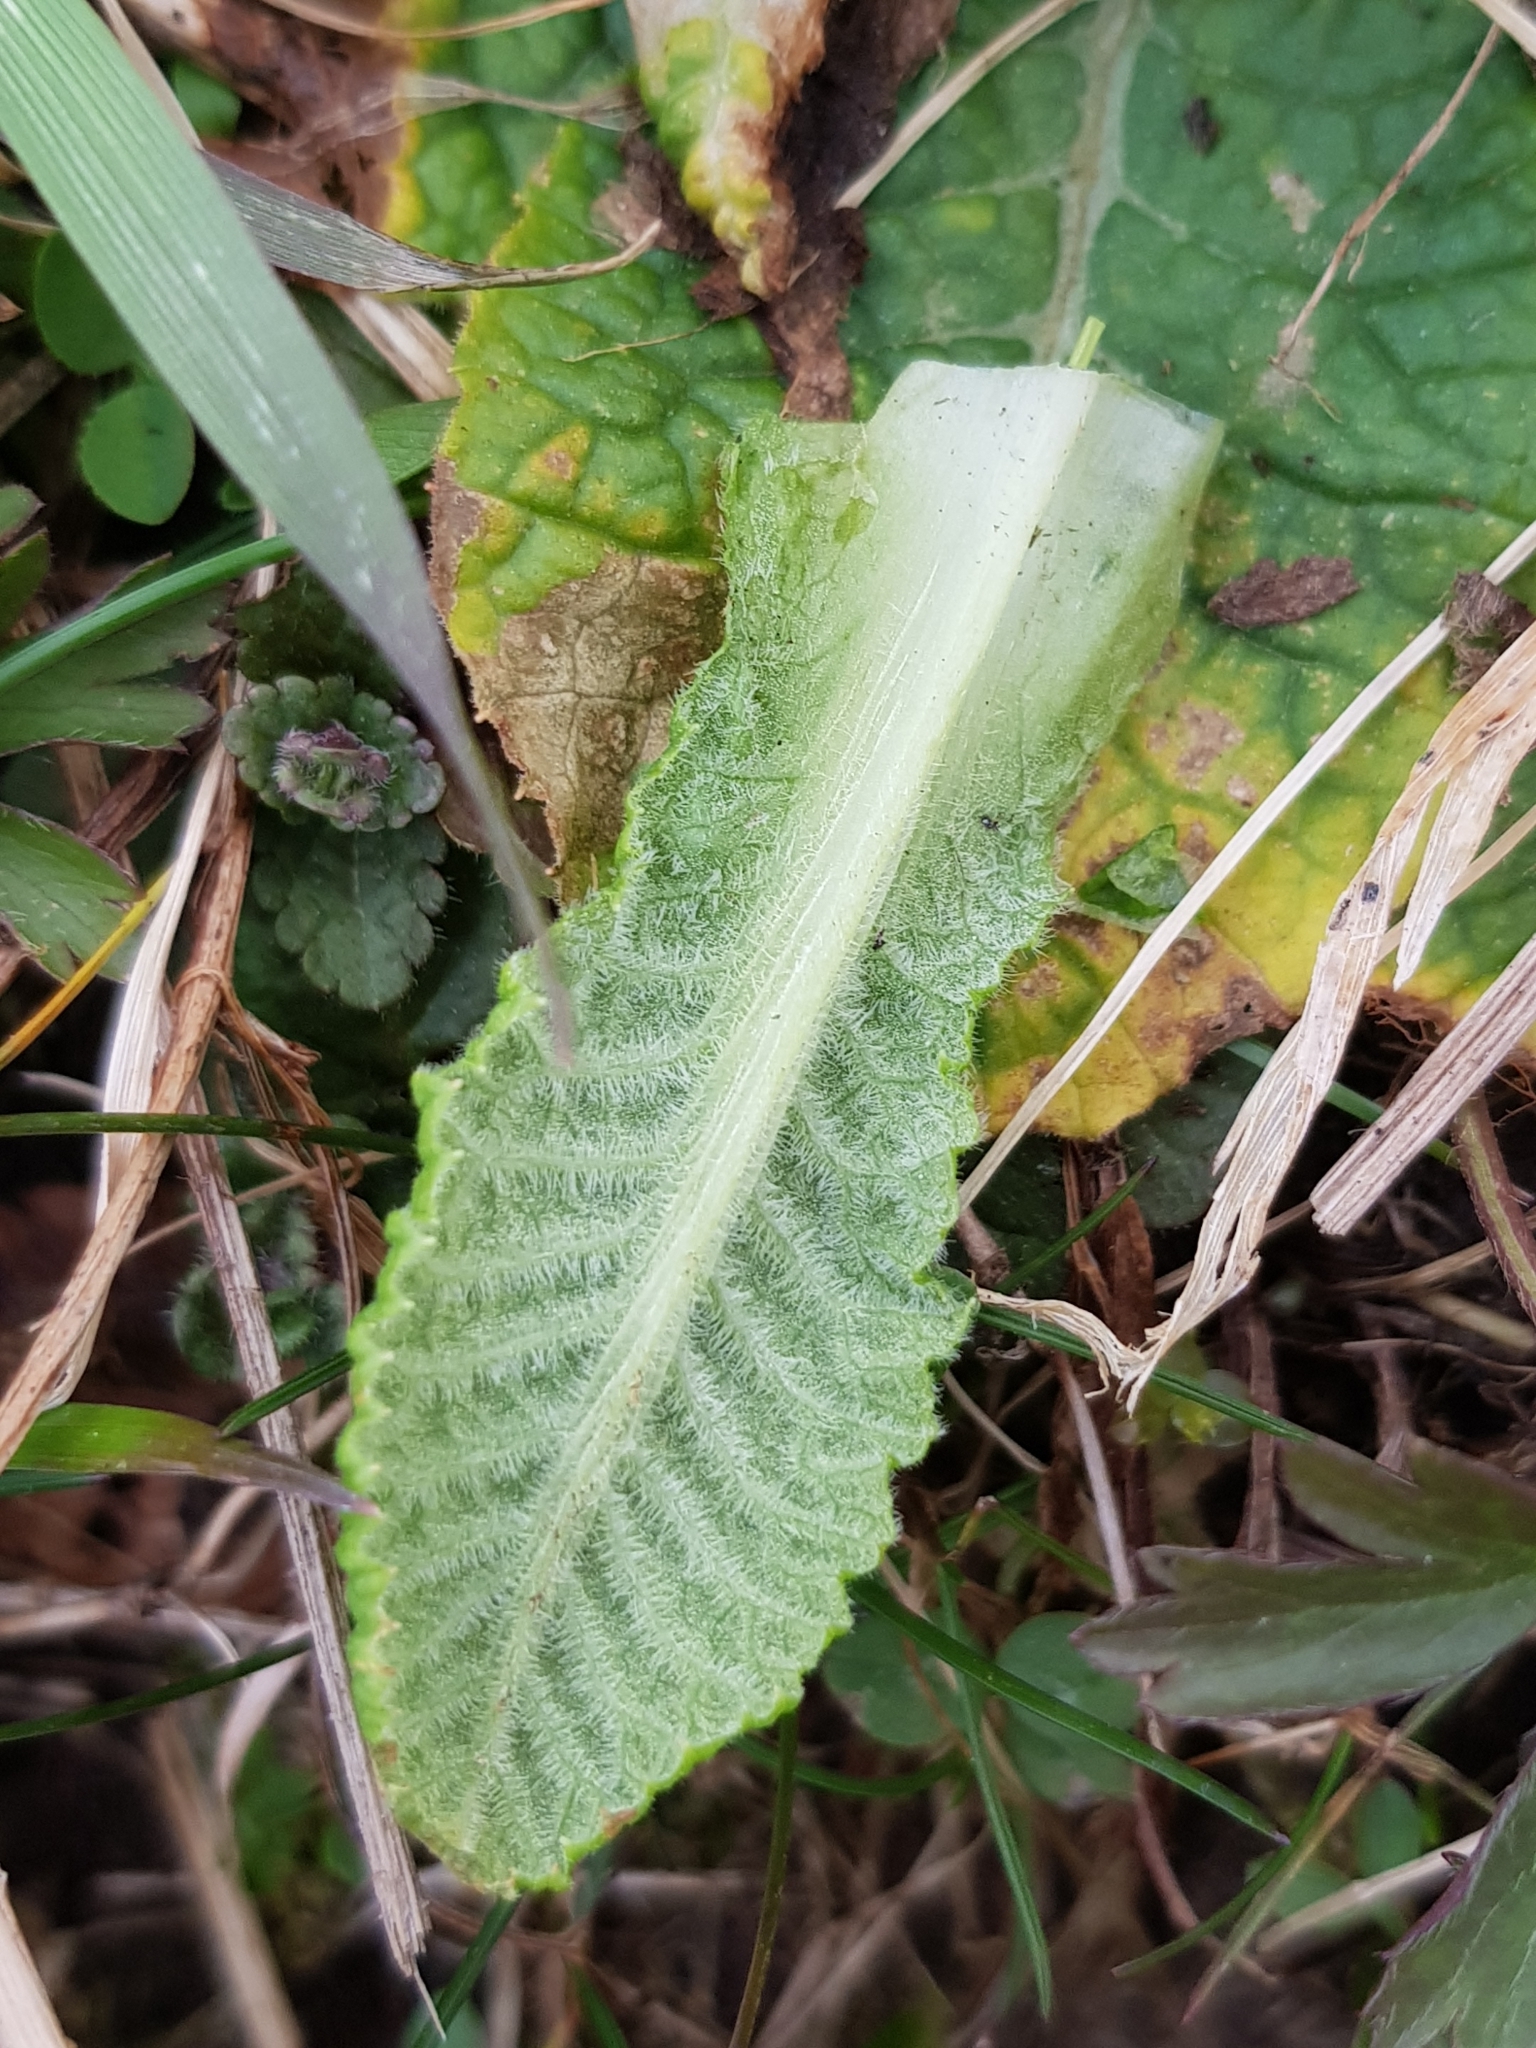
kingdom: Plantae
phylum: Tracheophyta
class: Magnoliopsida
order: Ericales
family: Primulaceae
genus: Primula
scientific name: Primula vulgaris
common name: Primrose
